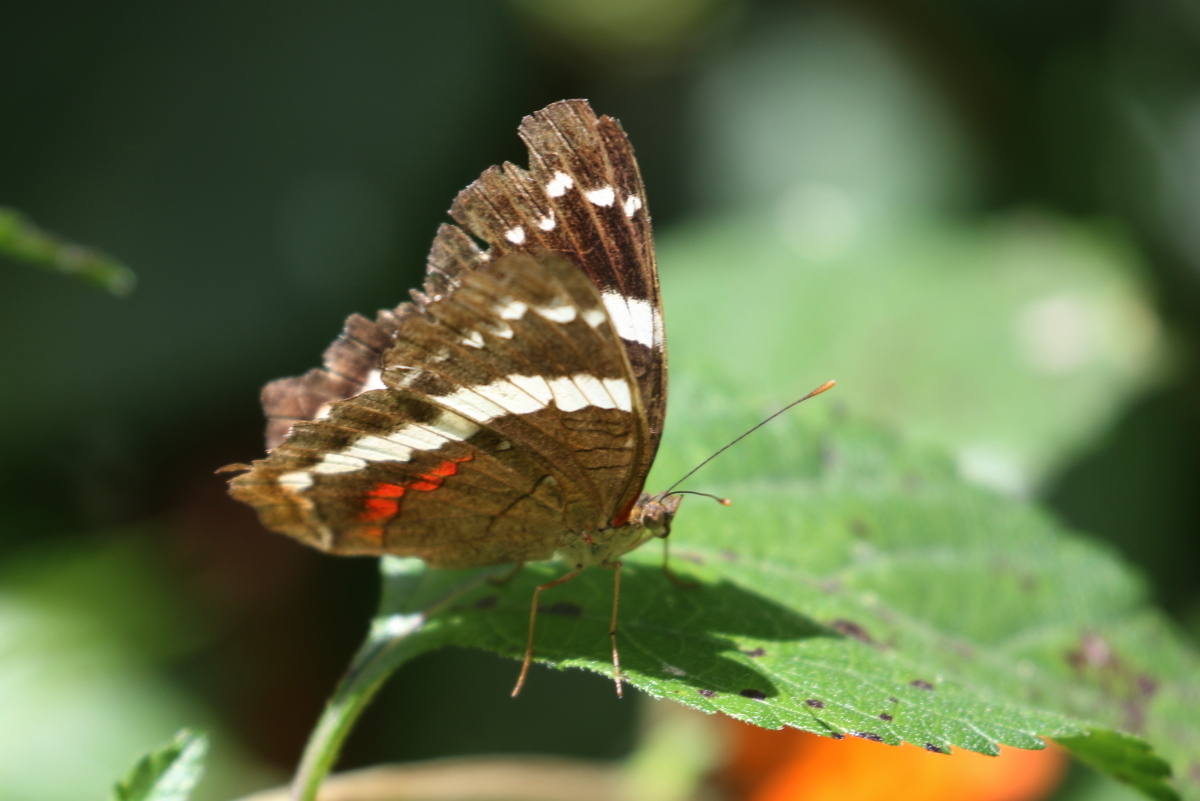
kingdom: Animalia
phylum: Arthropoda
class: Insecta
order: Lepidoptera
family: Nymphalidae
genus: Anartia
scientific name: Anartia fatima
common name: Banded peacock
